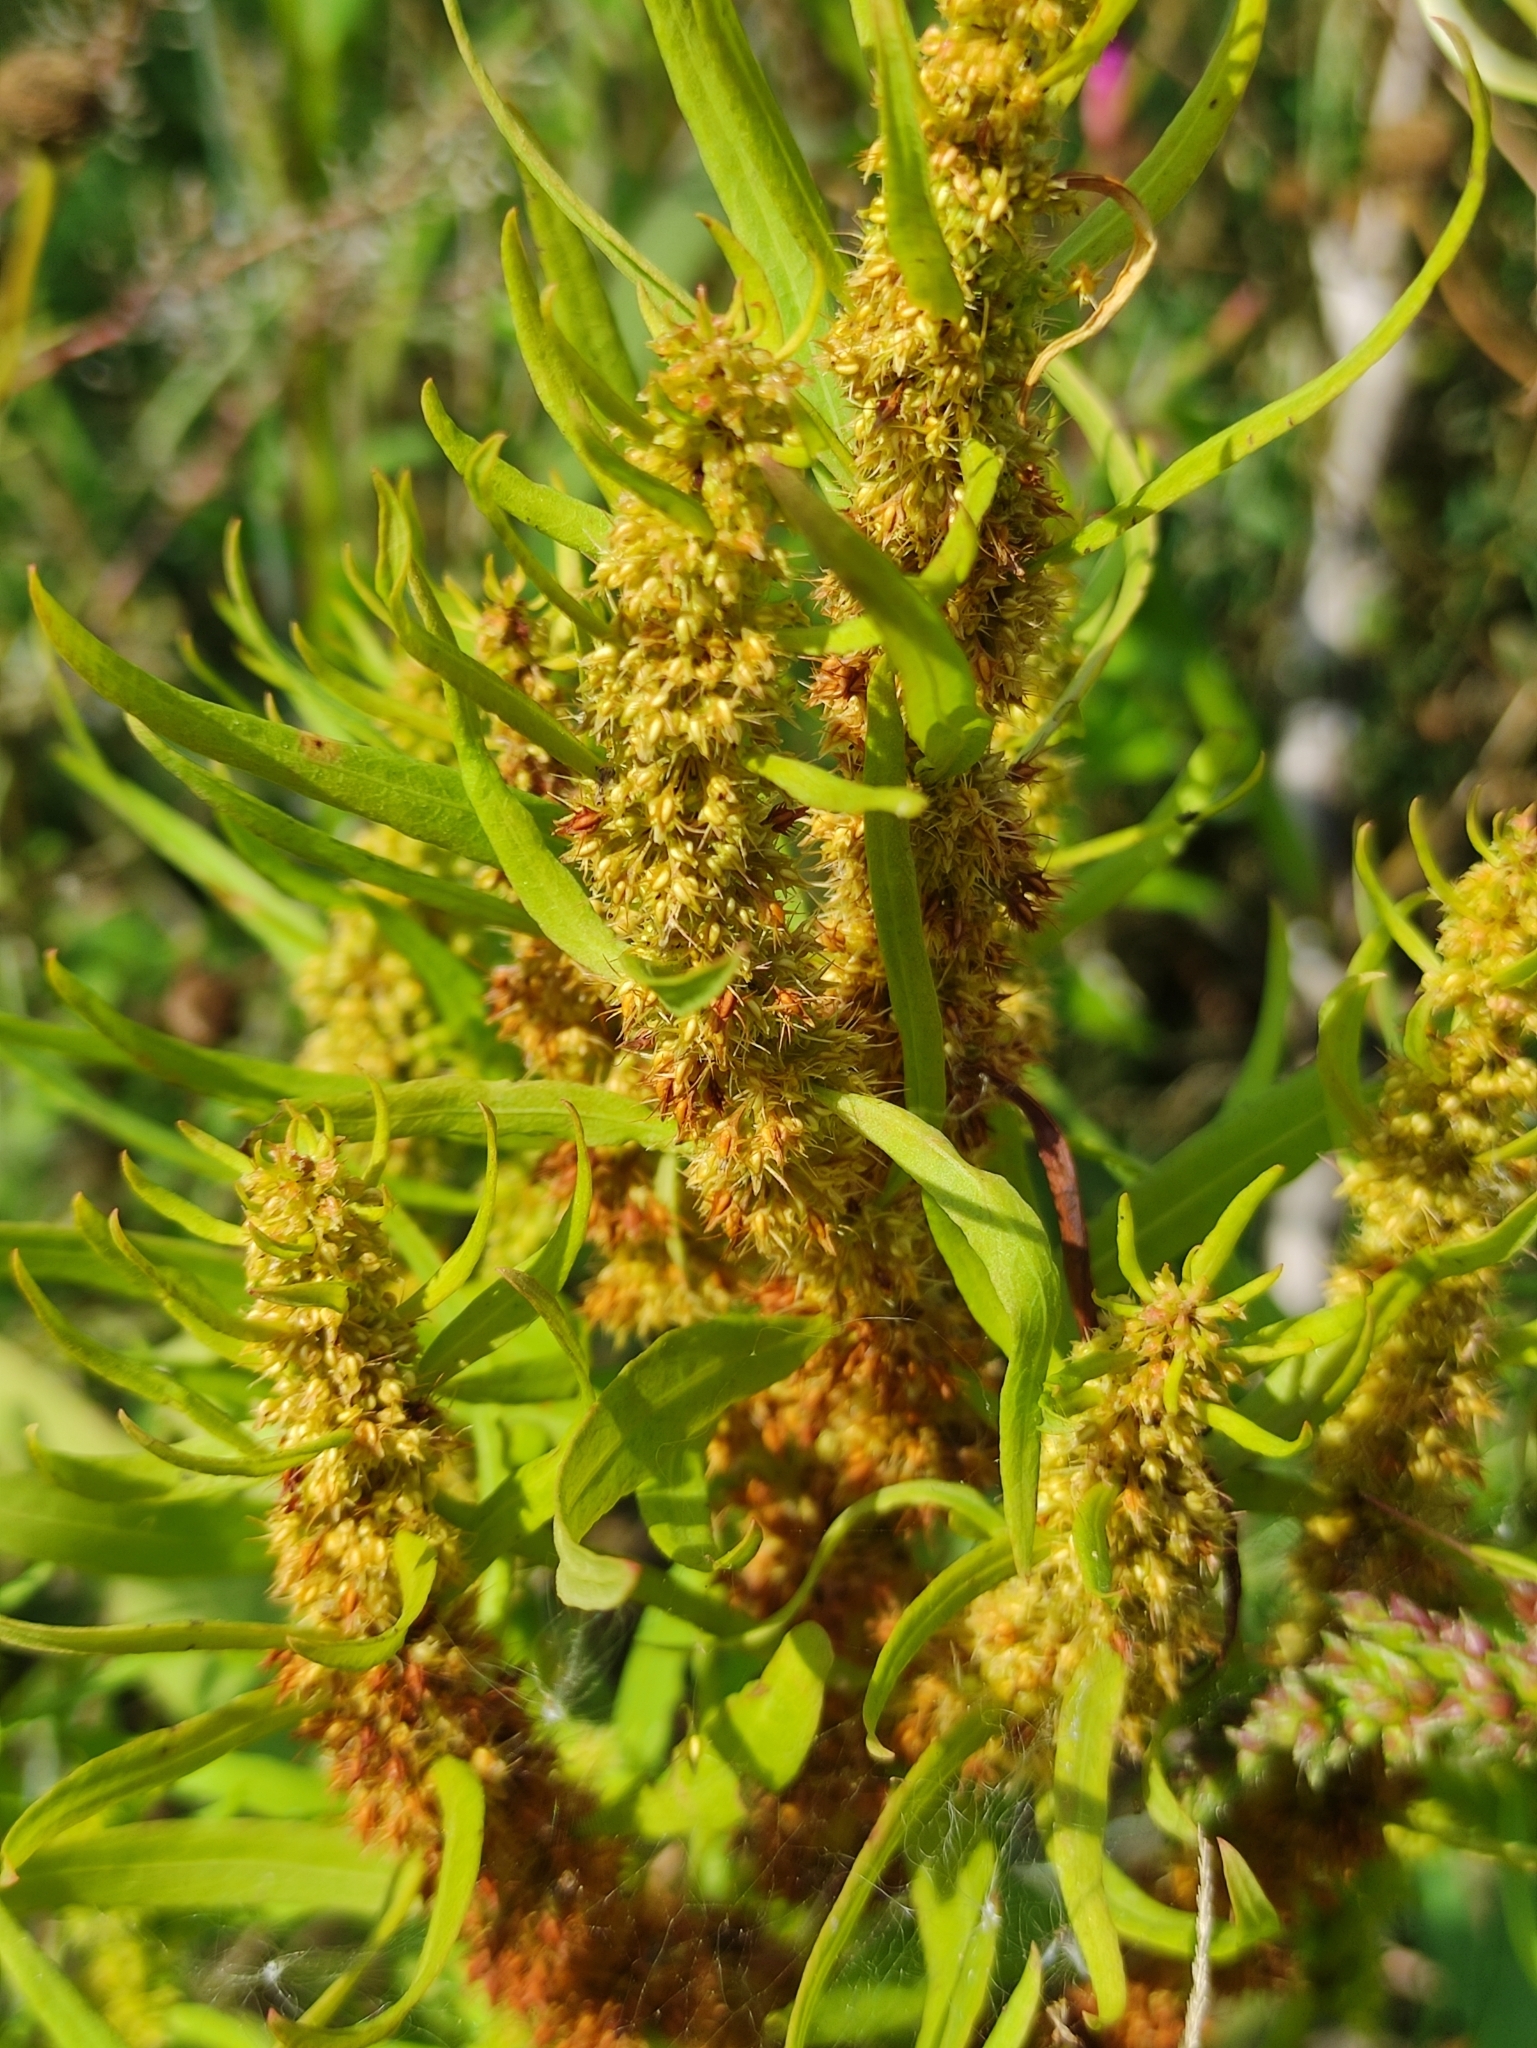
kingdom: Plantae
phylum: Tracheophyta
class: Magnoliopsida
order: Caryophyllales
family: Polygonaceae
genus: Rumex
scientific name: Rumex maritimus
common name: Golden dock
